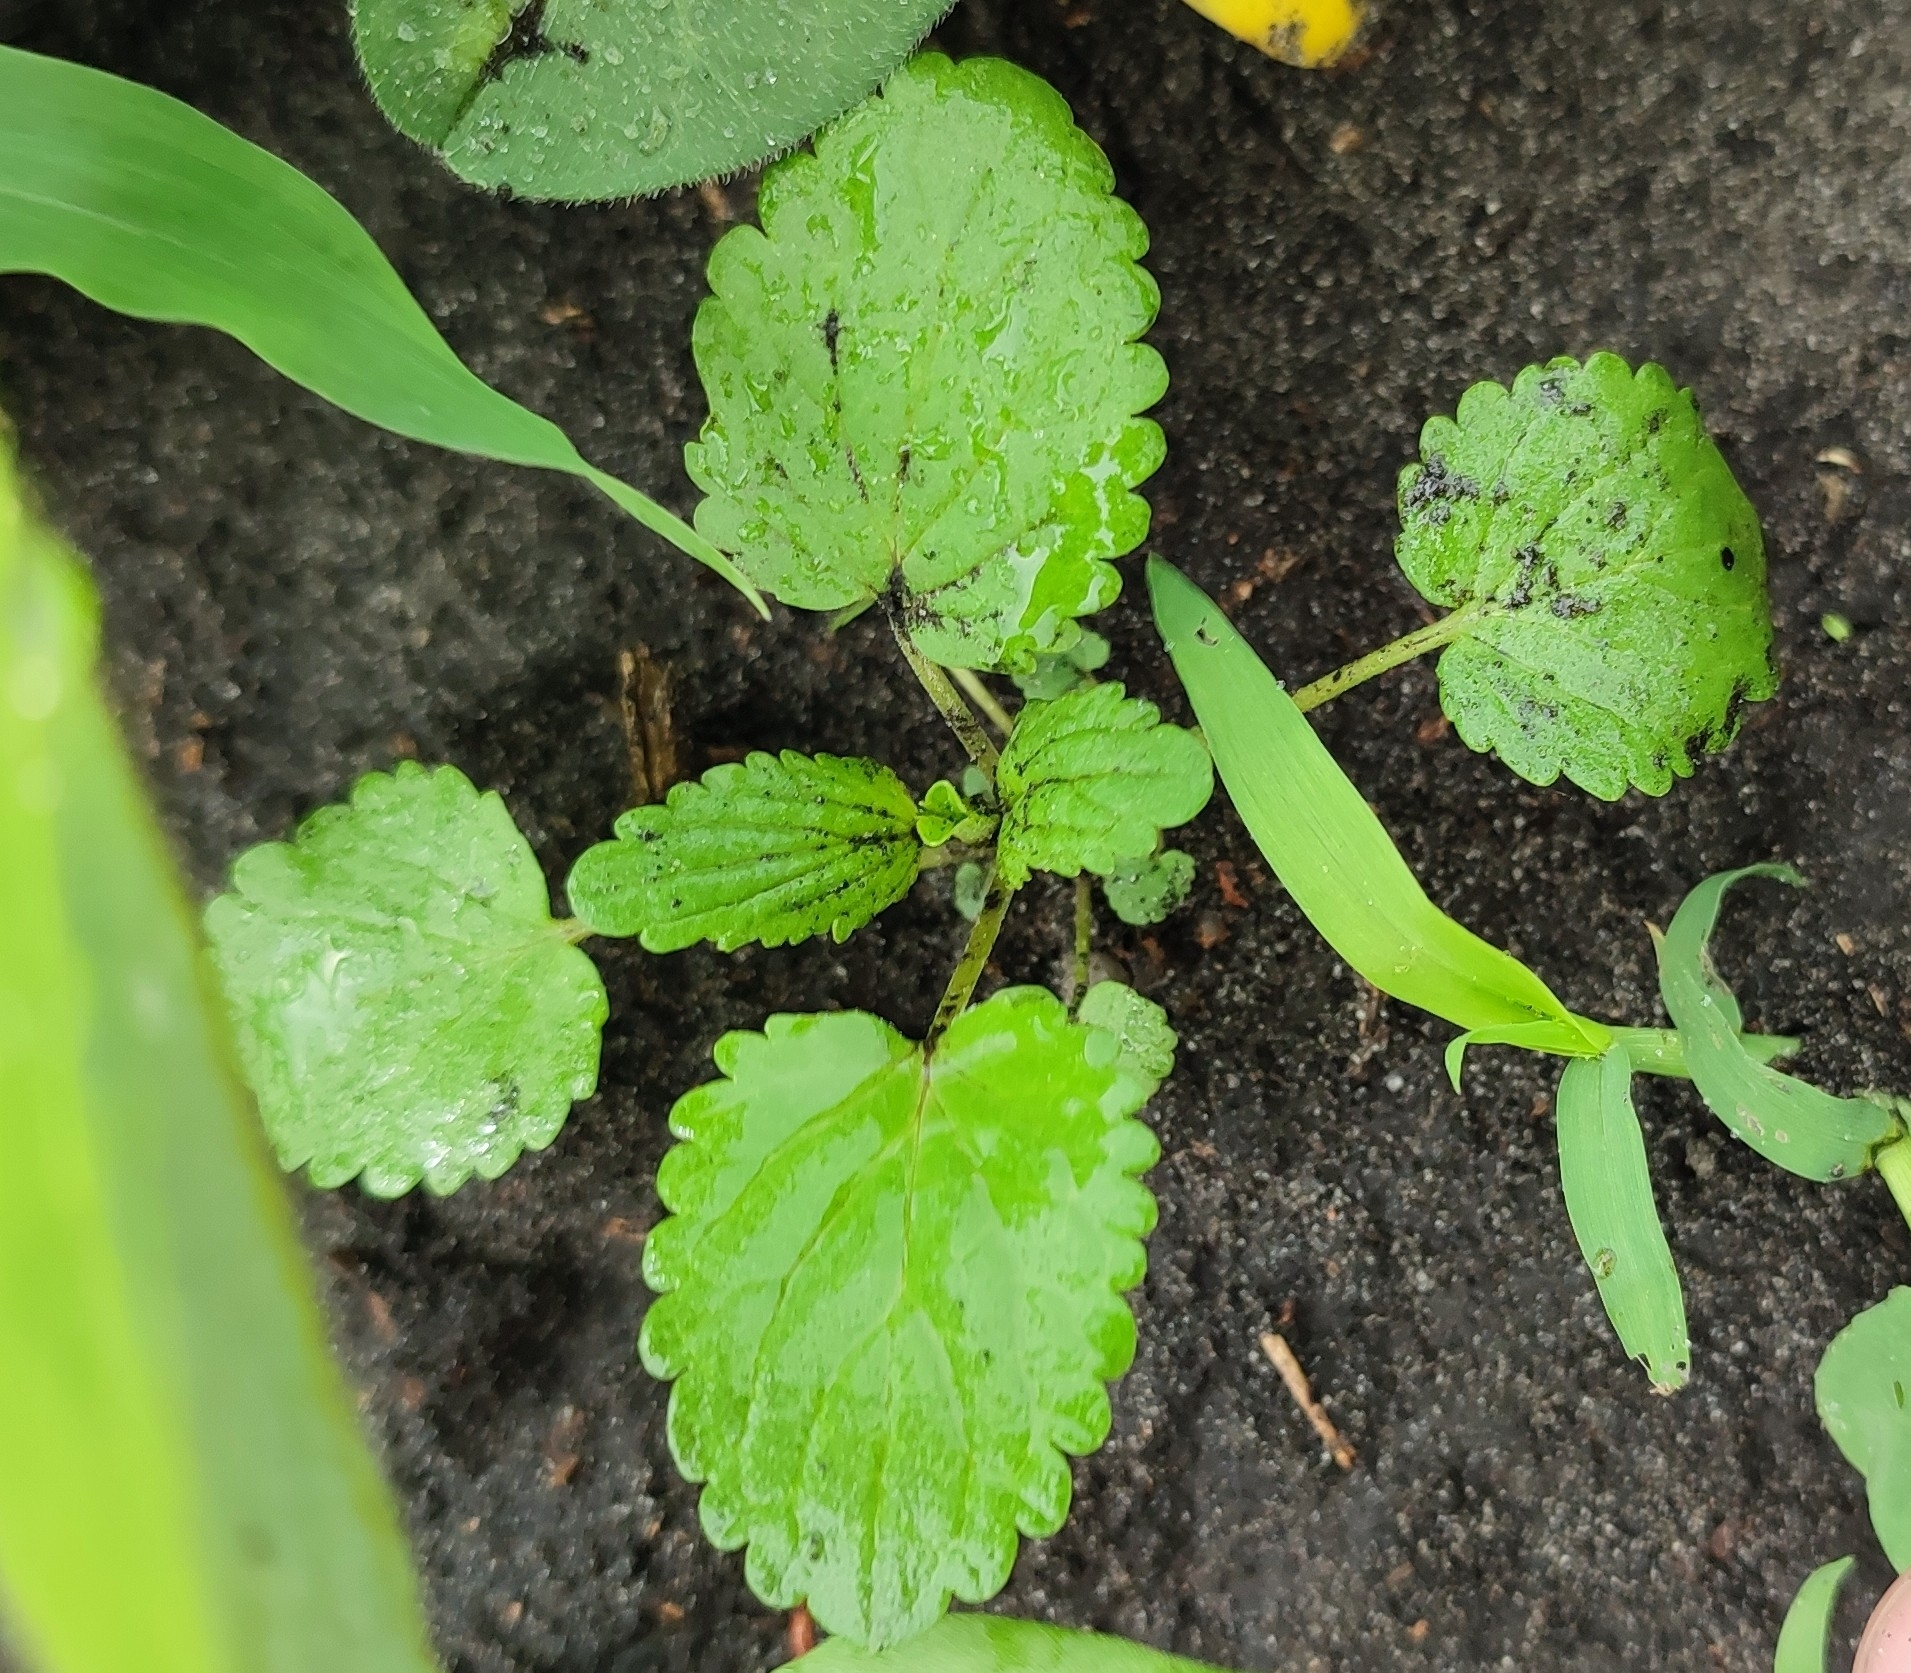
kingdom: Plantae
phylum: Tracheophyta
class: Magnoliopsida
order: Lamiales
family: Lamiaceae
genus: Dracocephalum
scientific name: Dracocephalum thymiflorum
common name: Thymeleaf dragonhead
